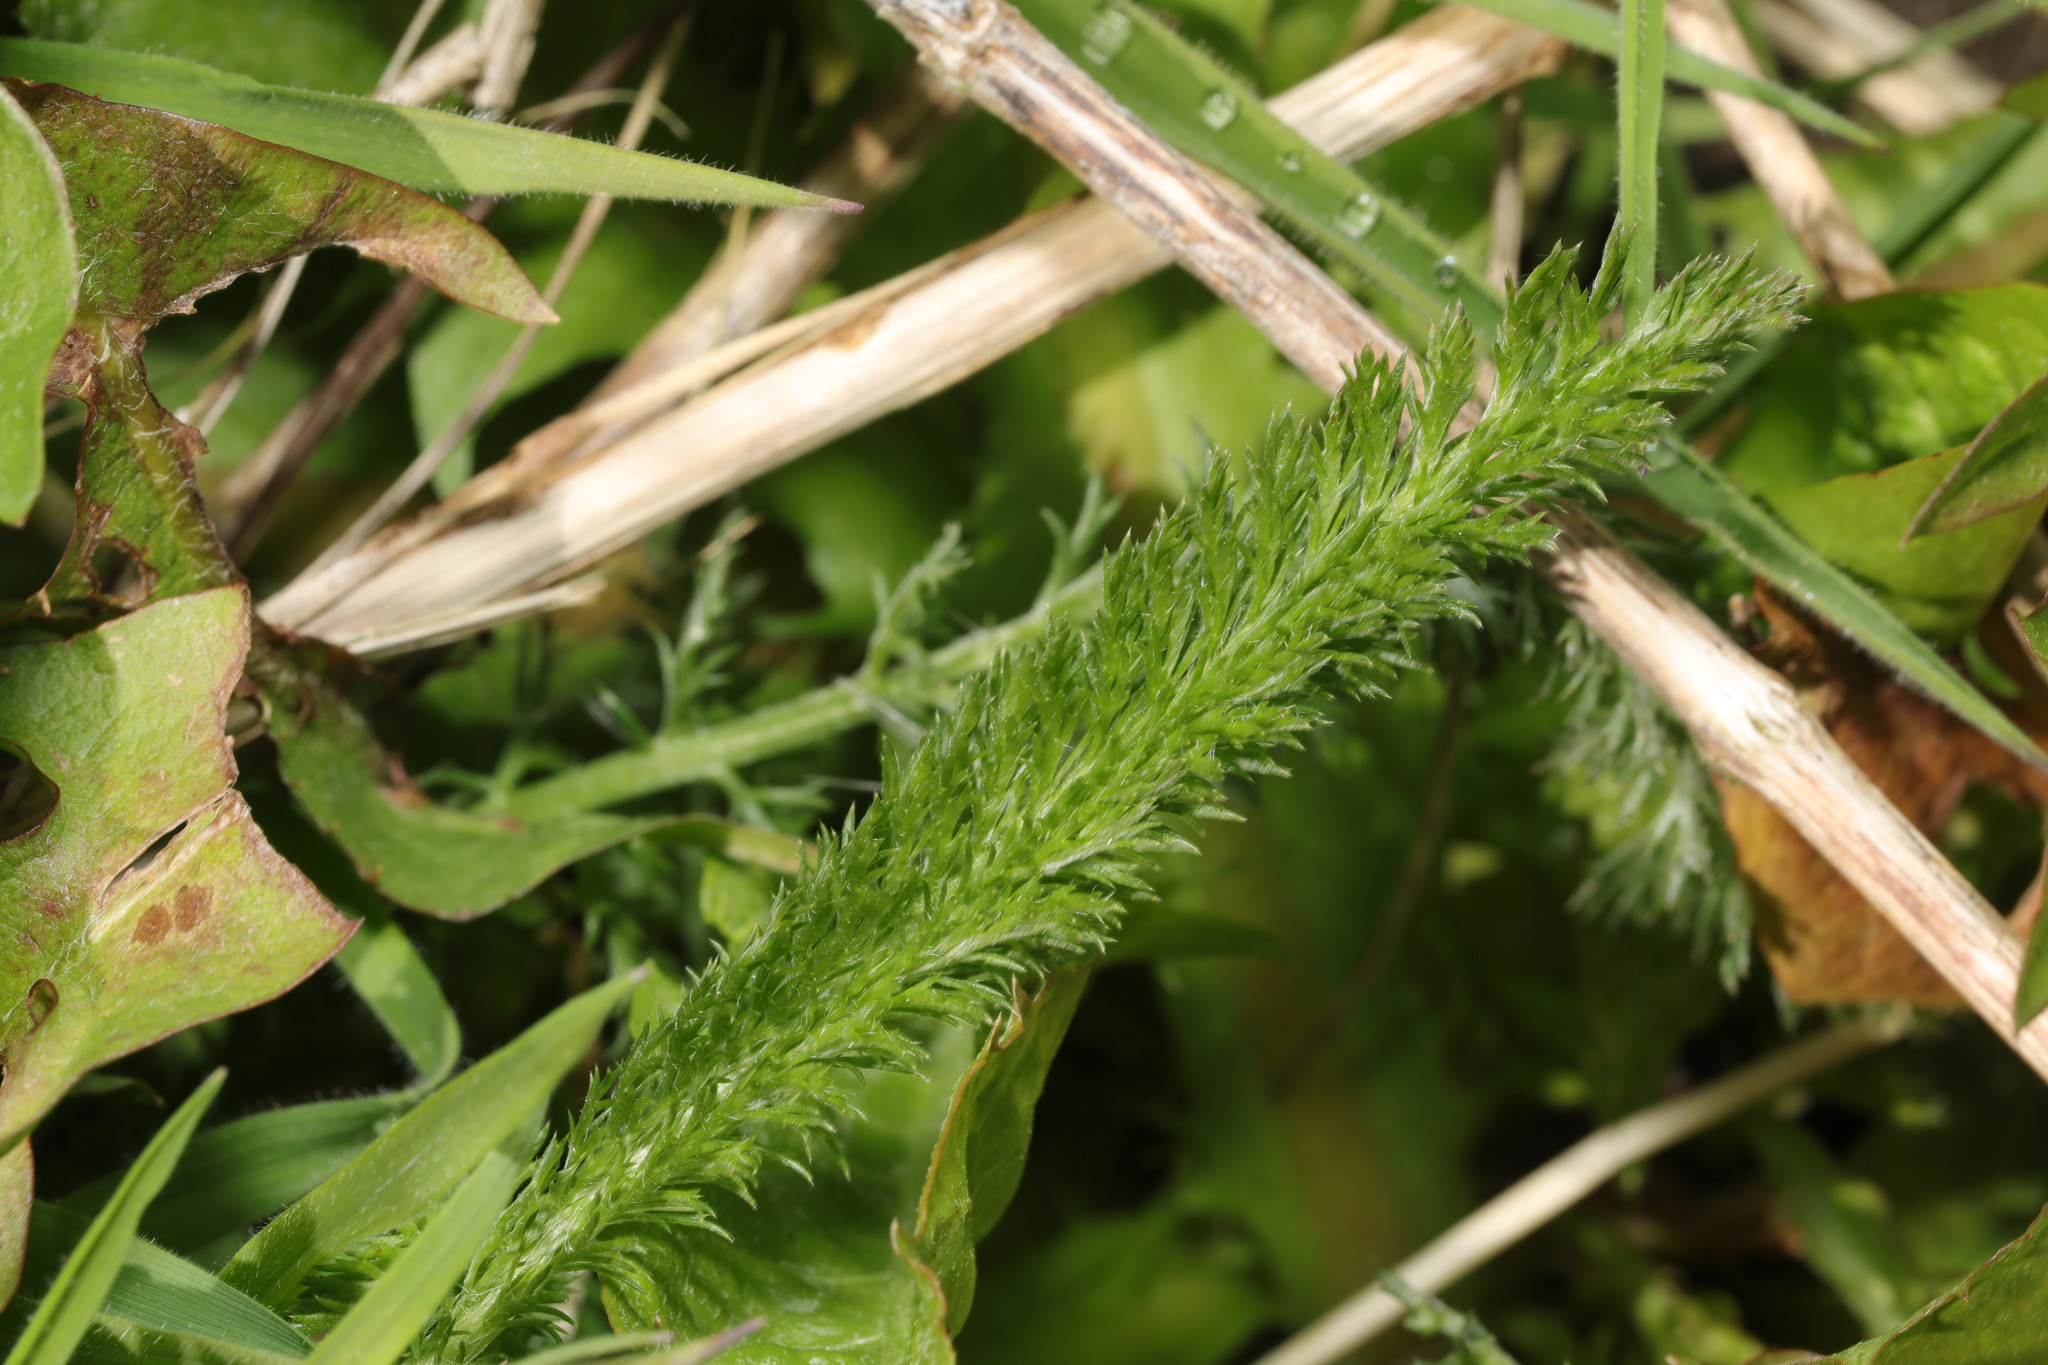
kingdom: Plantae
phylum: Tracheophyta
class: Magnoliopsida
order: Asterales
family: Asteraceae
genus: Achillea
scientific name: Achillea millefolium
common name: Yarrow
